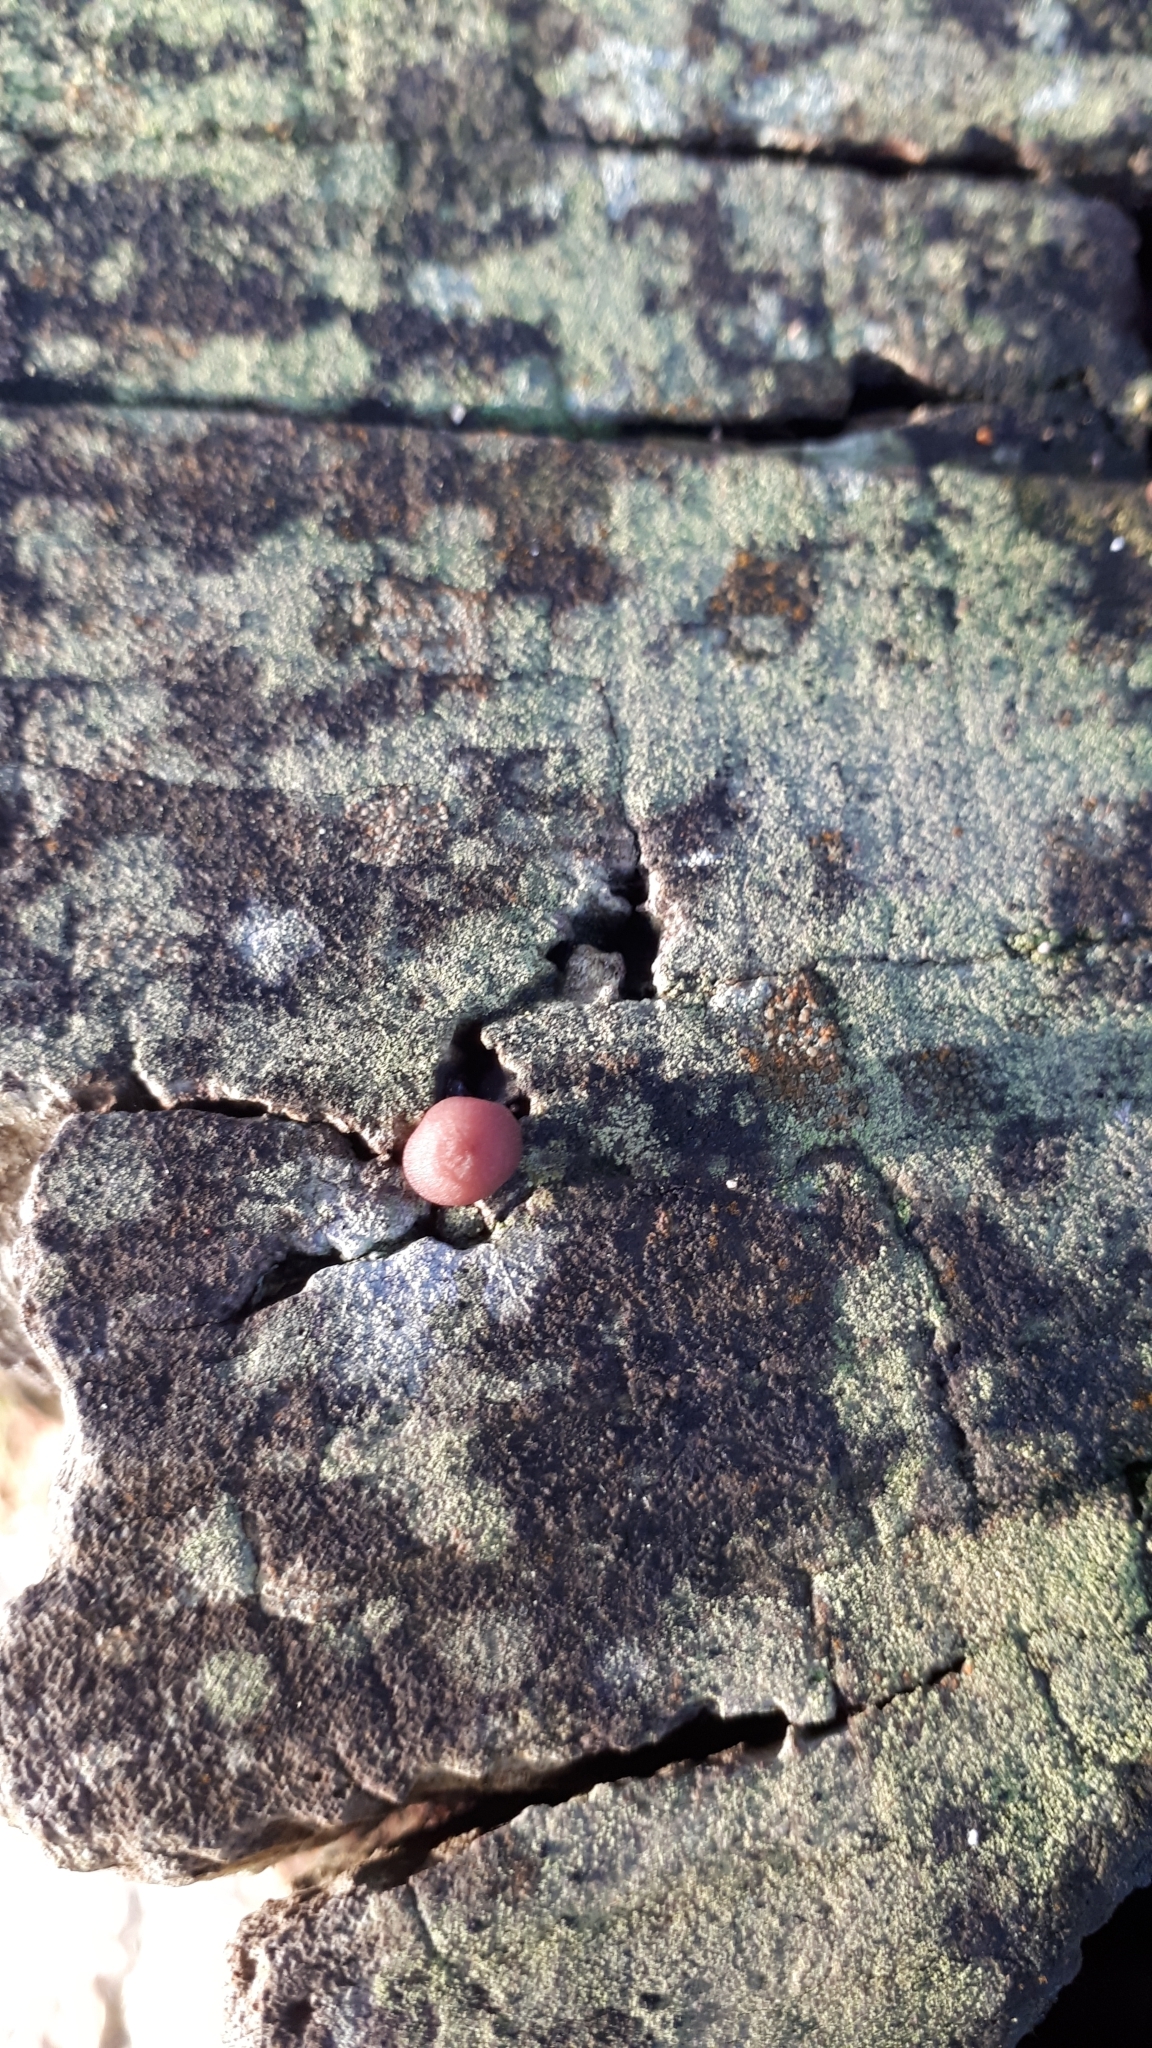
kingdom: Fungi
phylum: Basidiomycota
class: Agaricomycetes
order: Agaricales
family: Mycenaceae
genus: Mycena
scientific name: Mycena clarkeana
